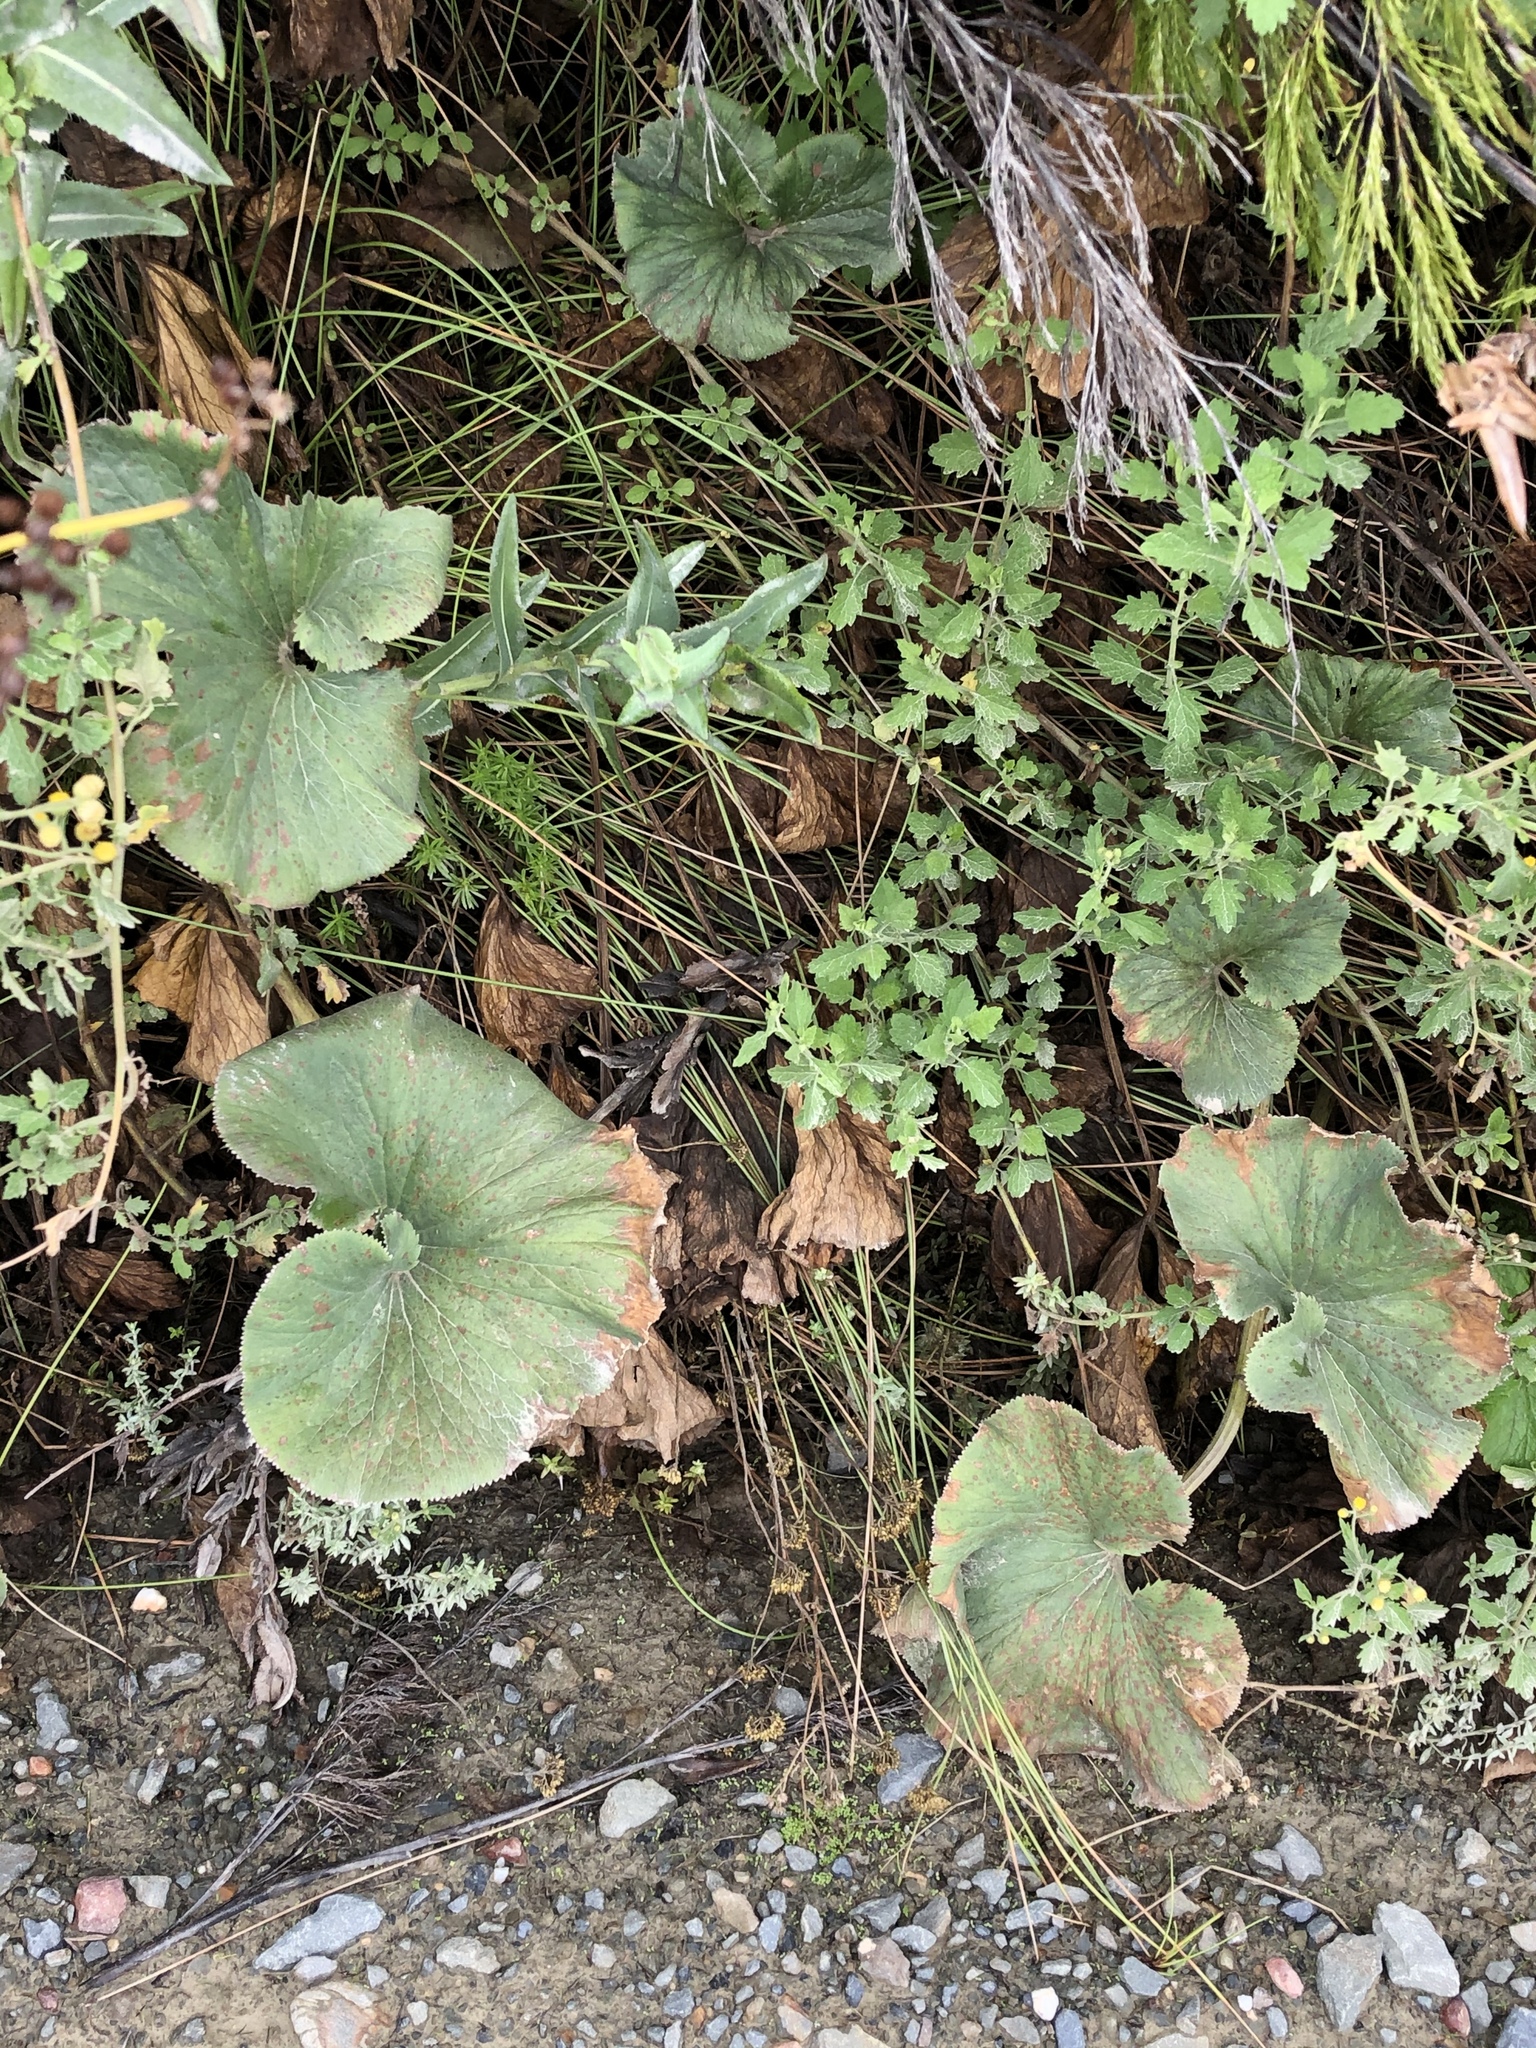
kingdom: Plantae
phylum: Tracheophyta
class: Magnoliopsida
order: Gunnerales
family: Gunneraceae
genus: Gunnera
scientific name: Gunnera perpensa
